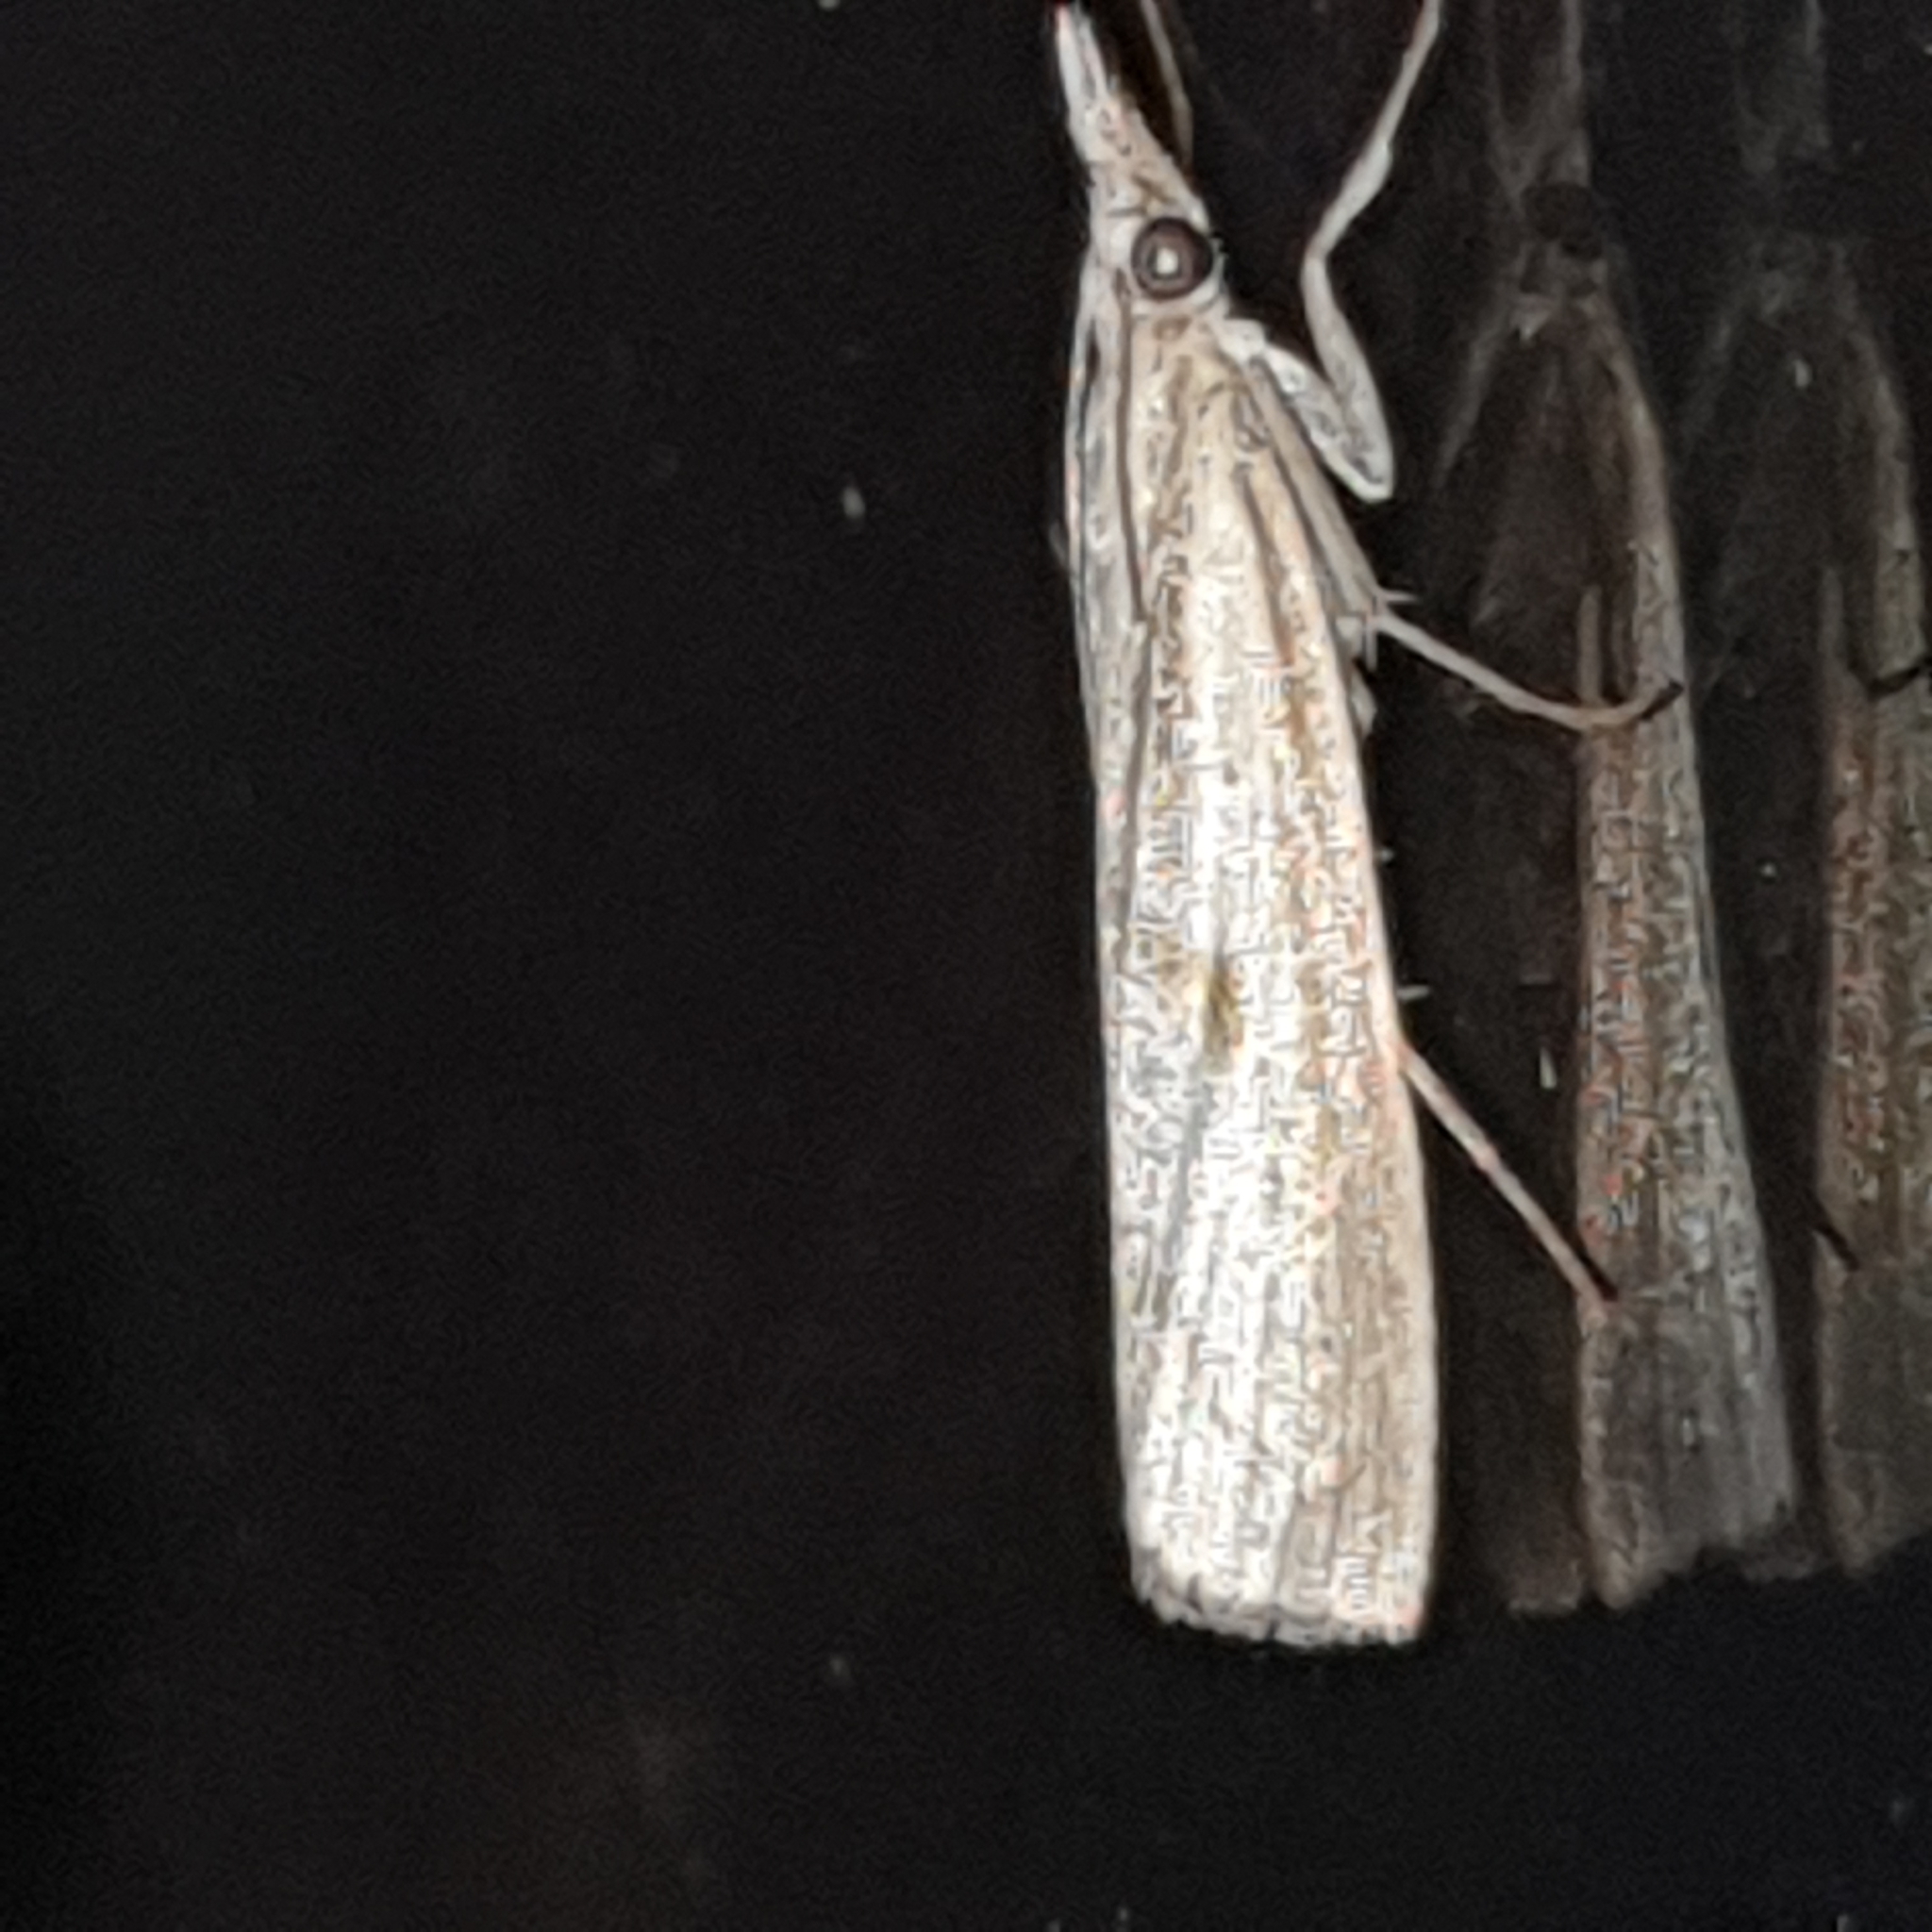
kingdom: Animalia
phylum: Arthropoda
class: Insecta
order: Lepidoptera
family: Crambidae
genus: Agriphila
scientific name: Agriphila inquinatella
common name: Barred grass-veneer
